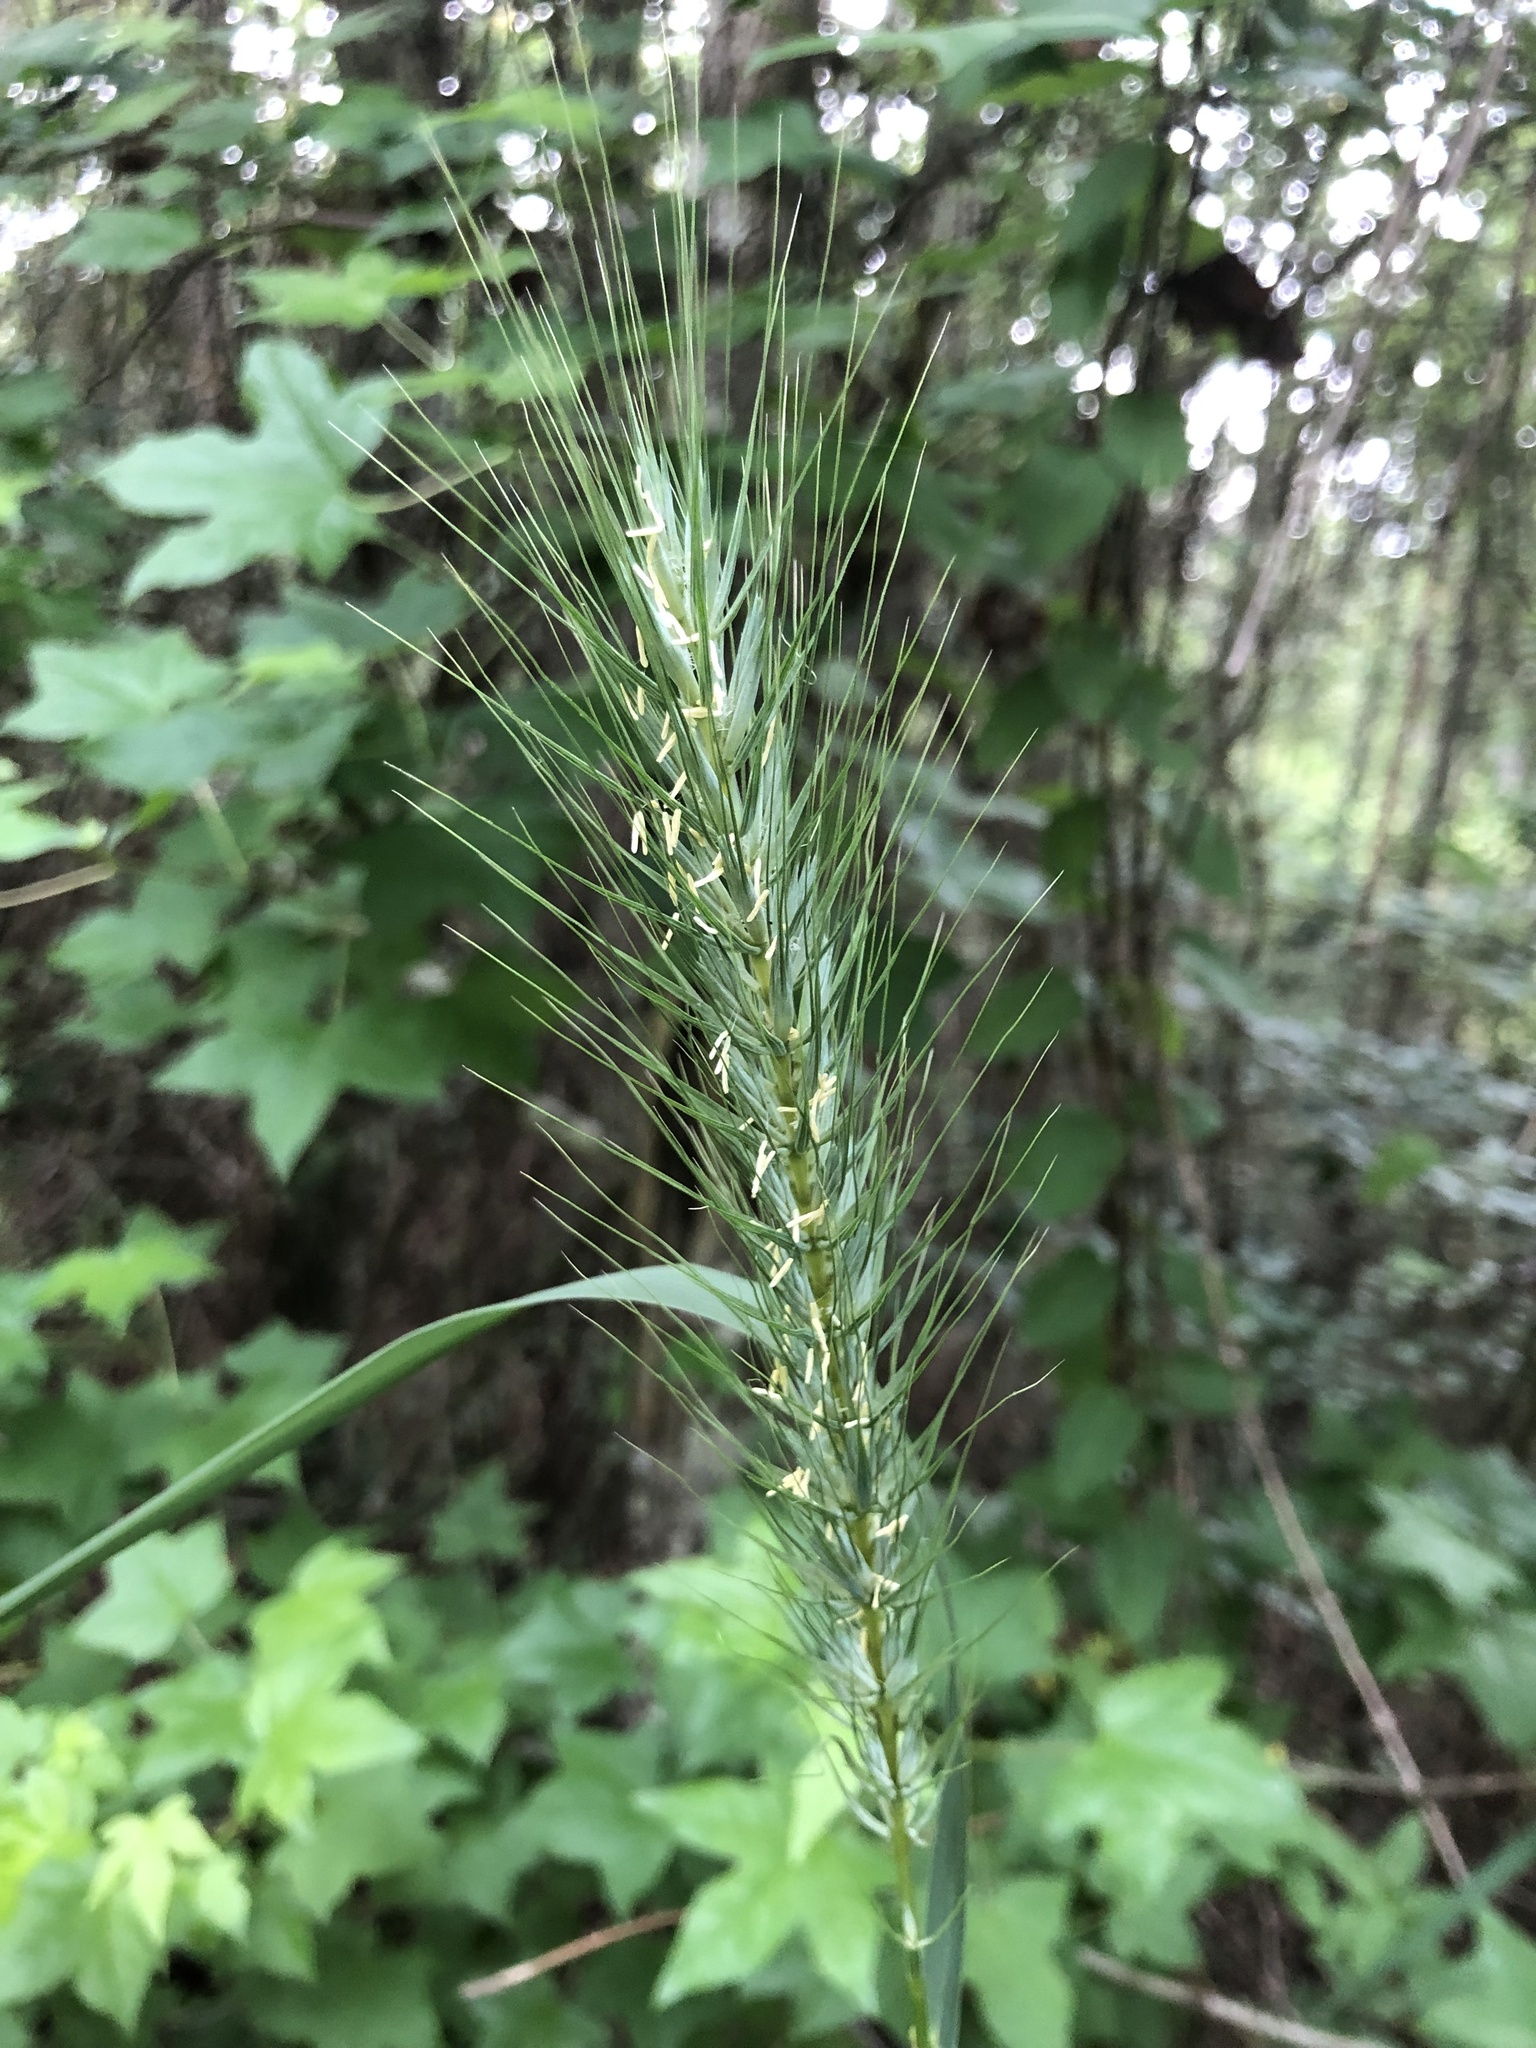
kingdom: Plantae
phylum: Tracheophyta
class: Liliopsida
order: Poales
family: Poaceae
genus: Elymus
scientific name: Elymus virginicus
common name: Common eastern wildrye
